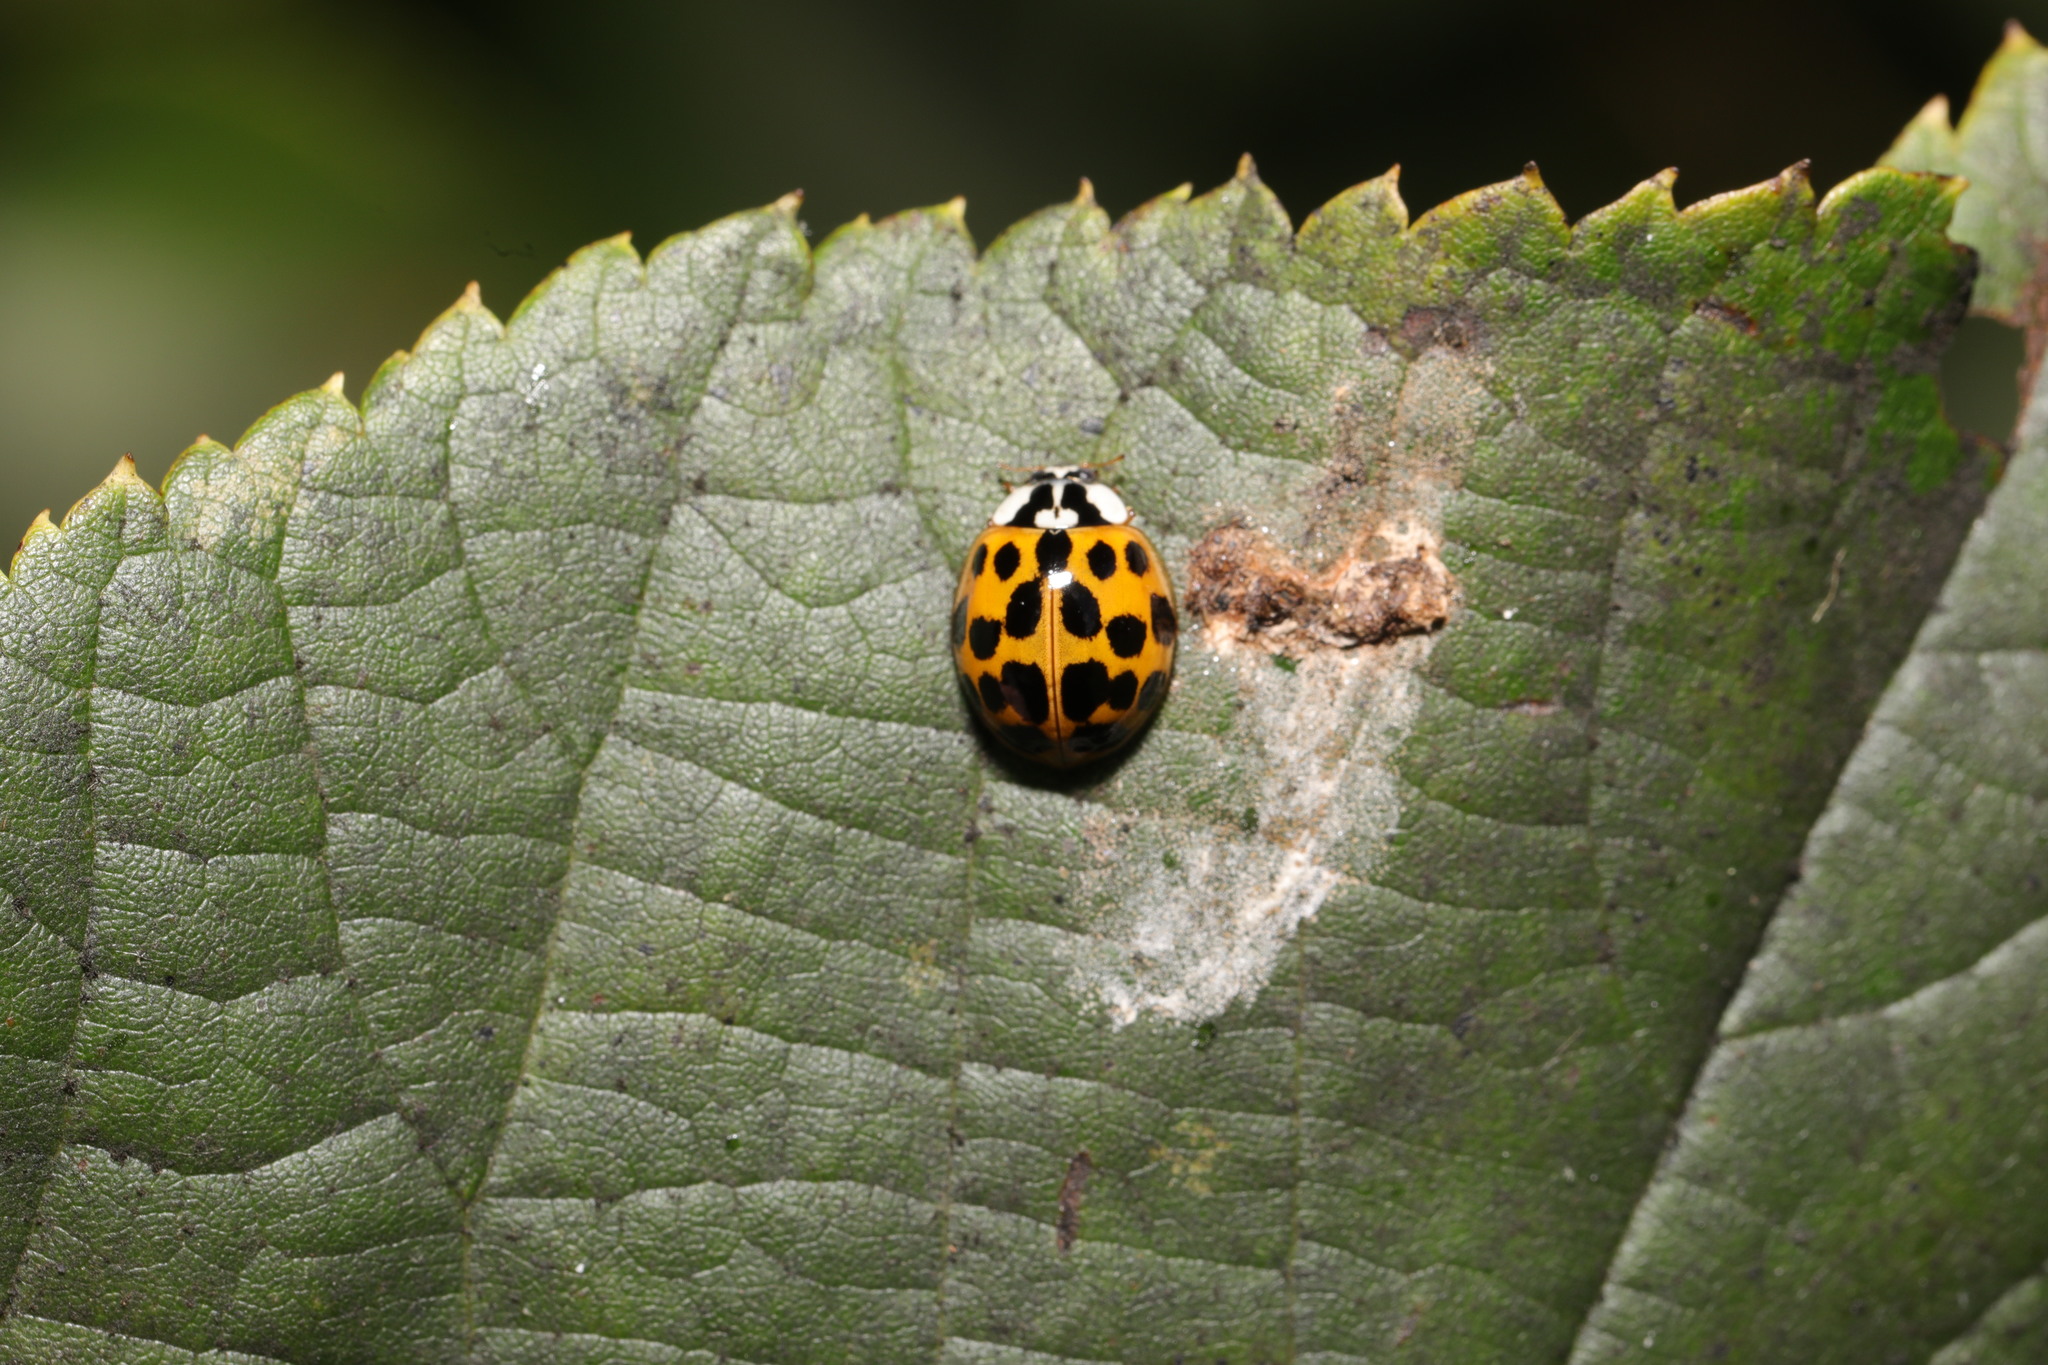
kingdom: Animalia
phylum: Arthropoda
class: Insecta
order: Coleoptera
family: Coccinellidae
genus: Harmonia
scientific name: Harmonia axyridis
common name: Harlequin ladybird
